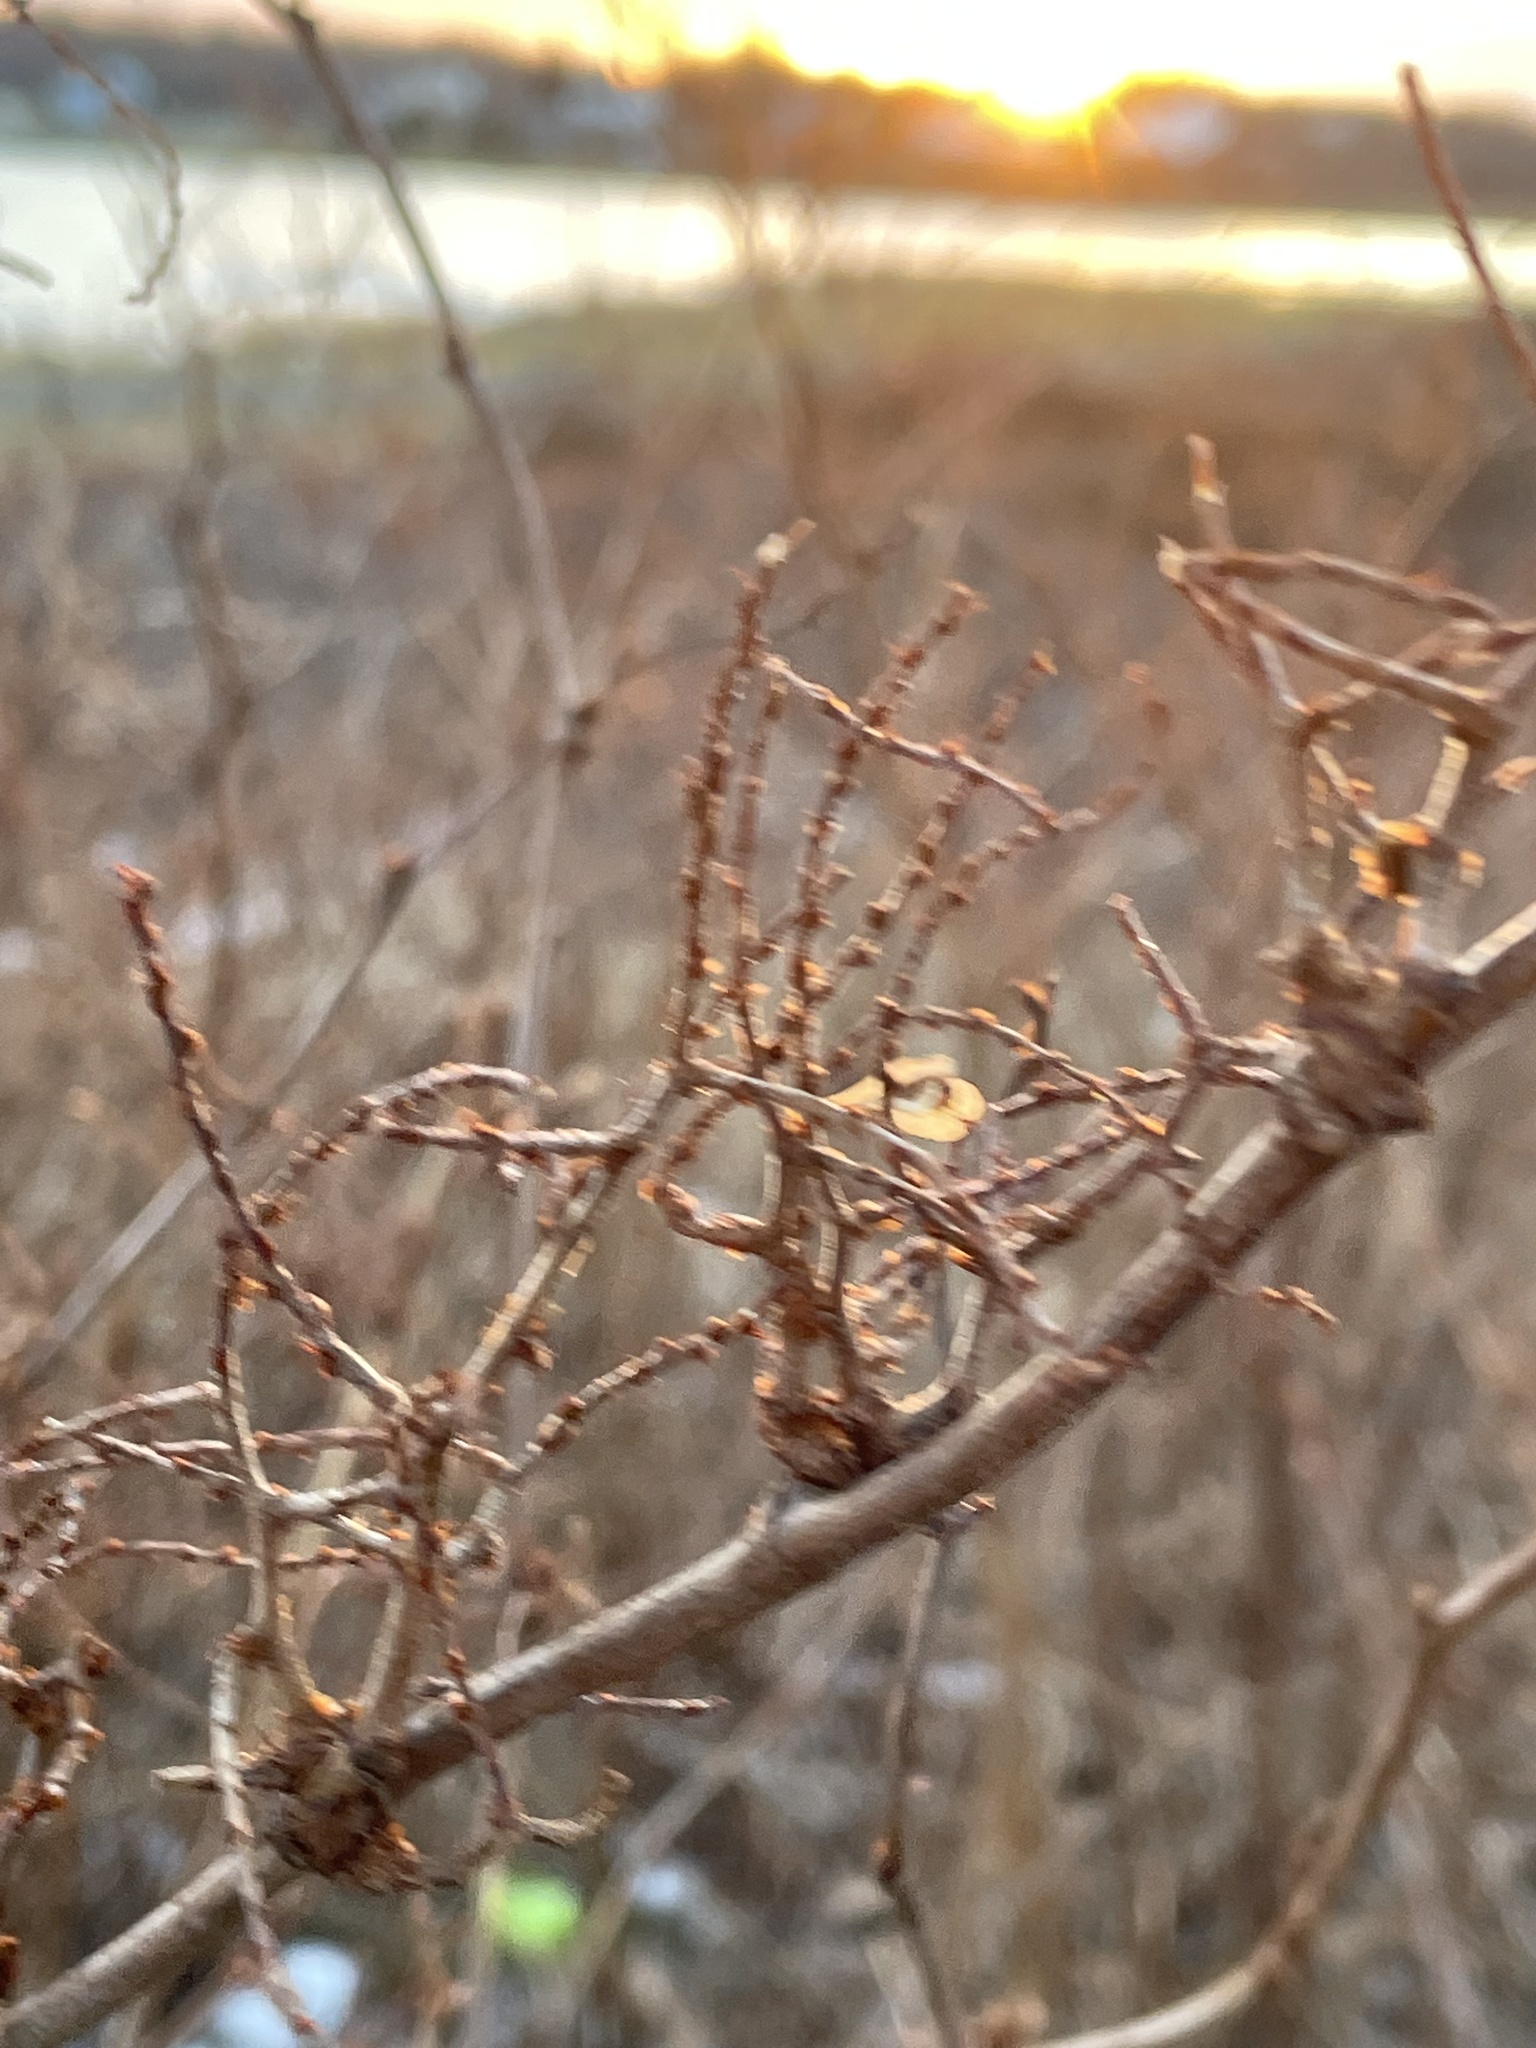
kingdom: Plantae
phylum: Tracheophyta
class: Magnoliopsida
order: Caryophyllales
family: Polygonaceae
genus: Reynoutria
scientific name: Reynoutria japonica
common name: Japanese knotweed
